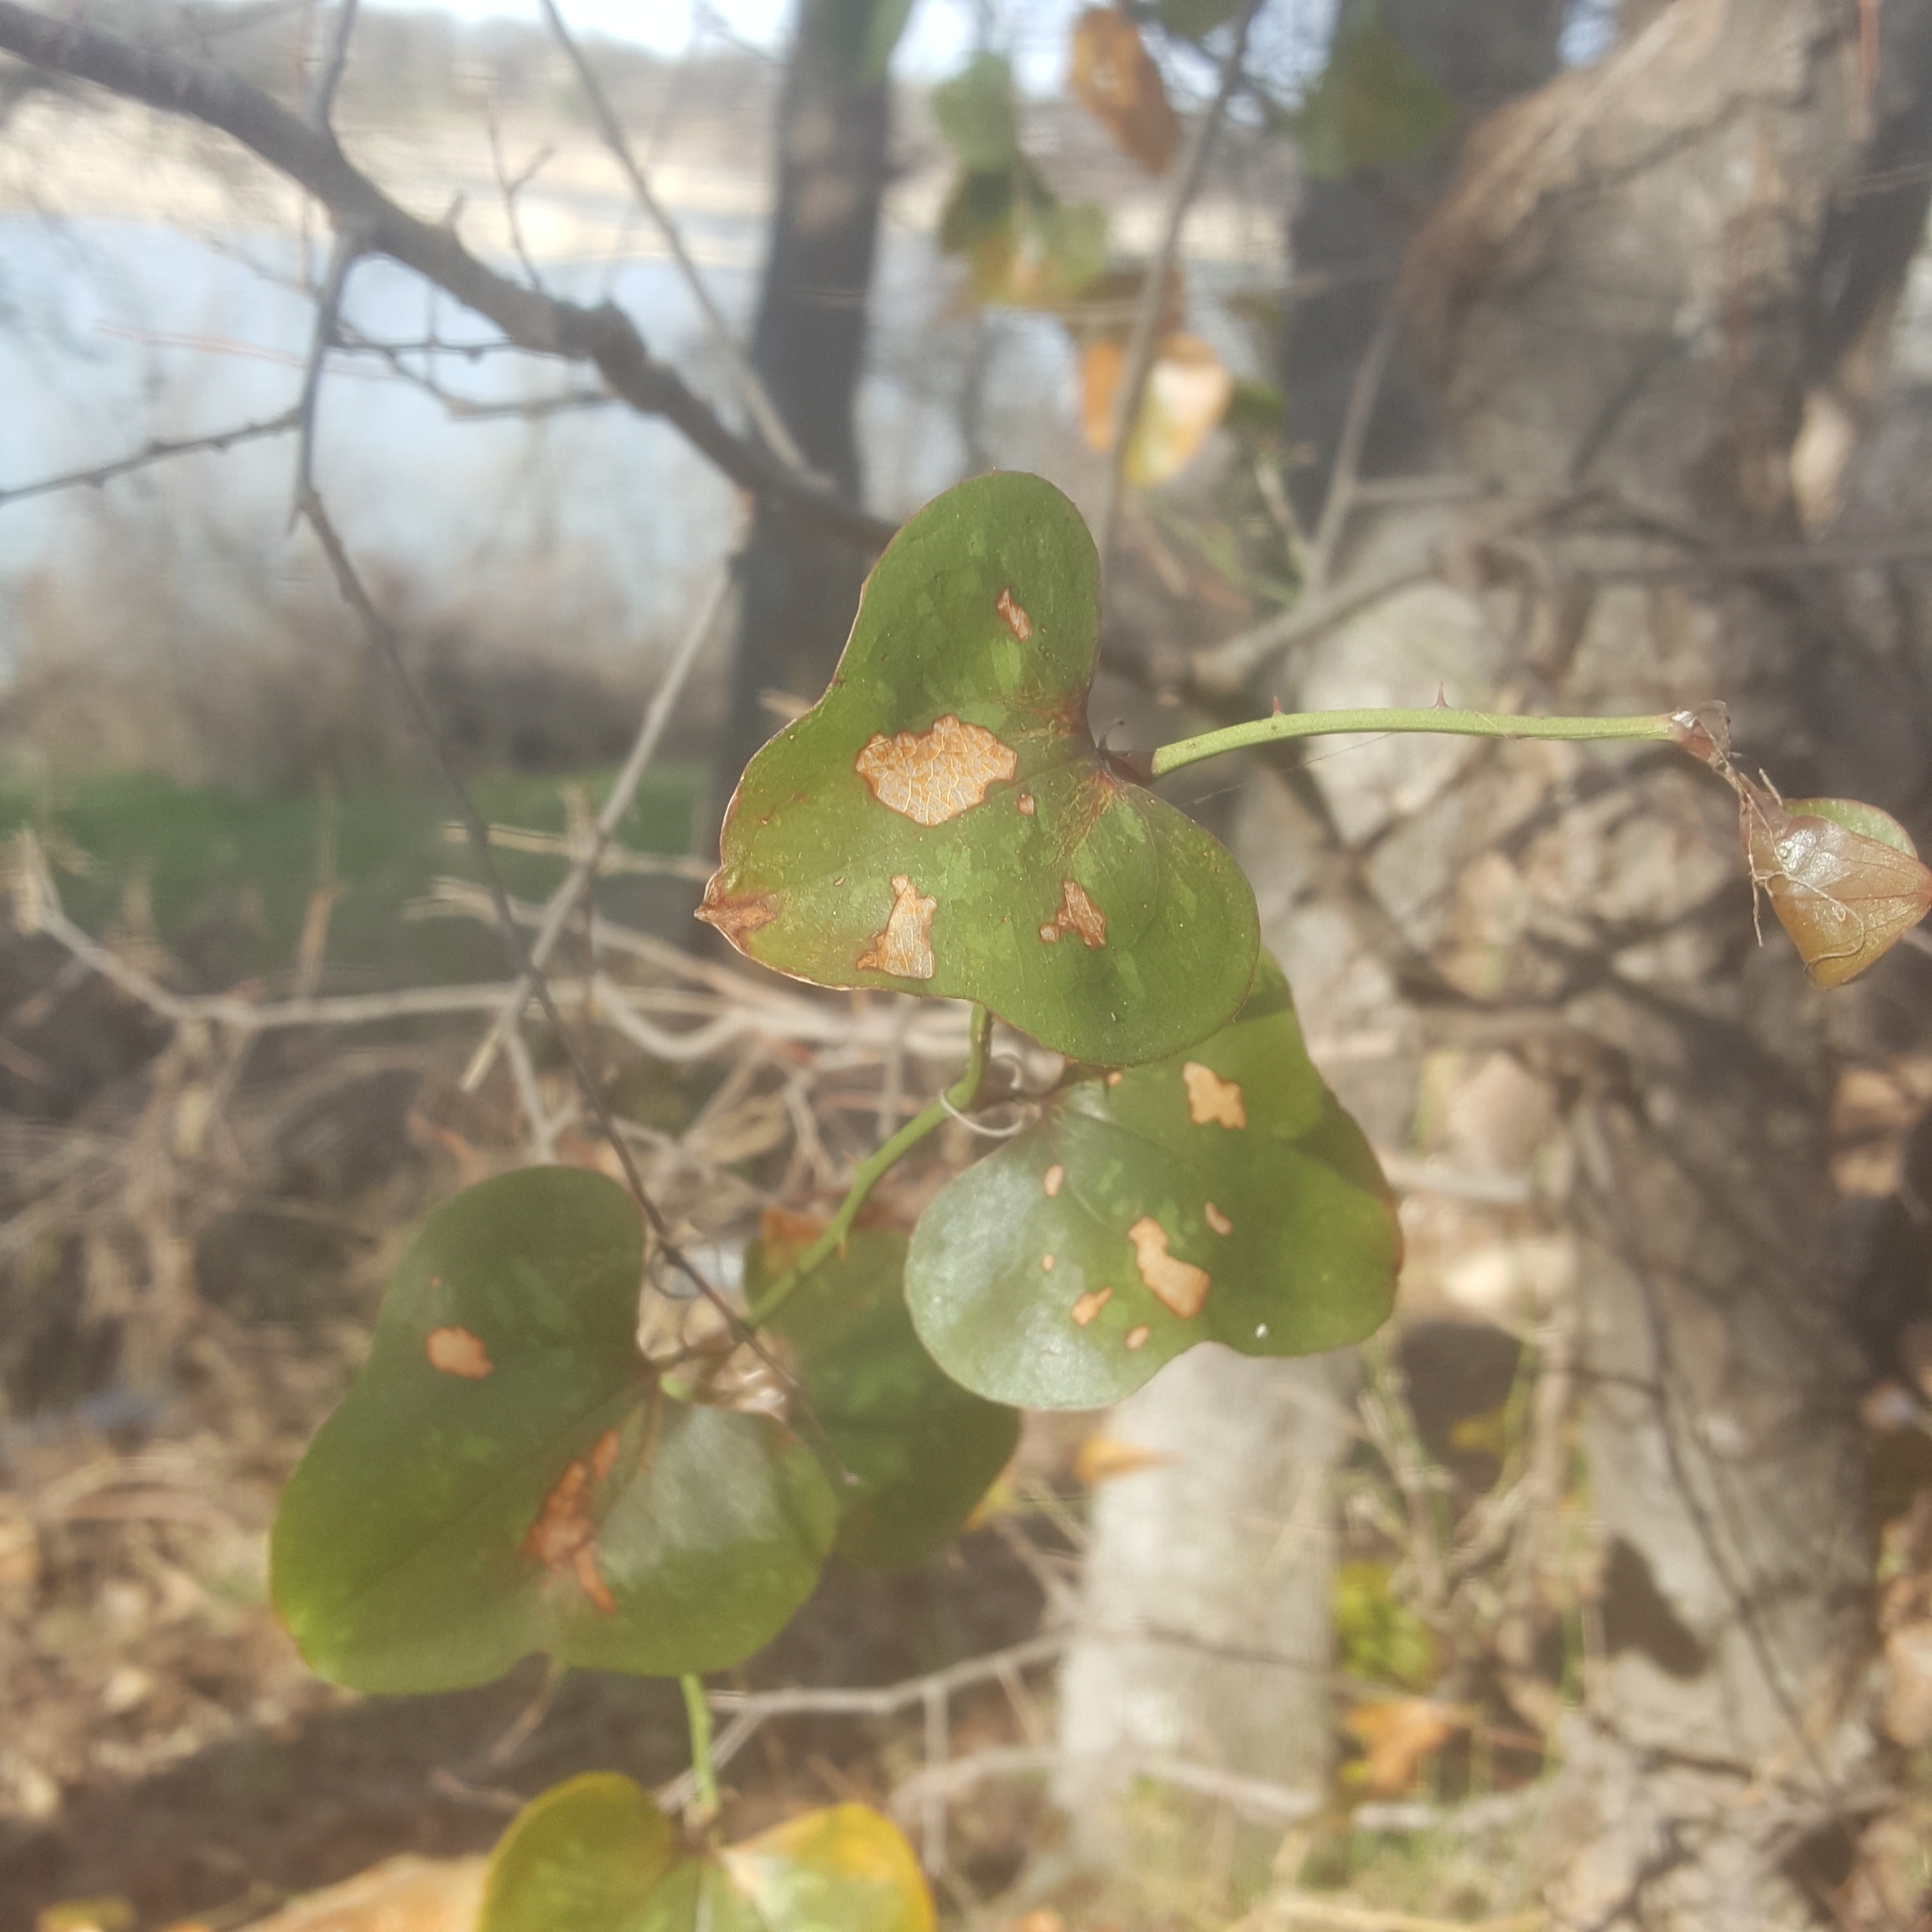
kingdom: Plantae
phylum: Tracheophyta
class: Liliopsida
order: Liliales
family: Smilacaceae
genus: Smilax
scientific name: Smilax bona-nox
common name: Catbrier
